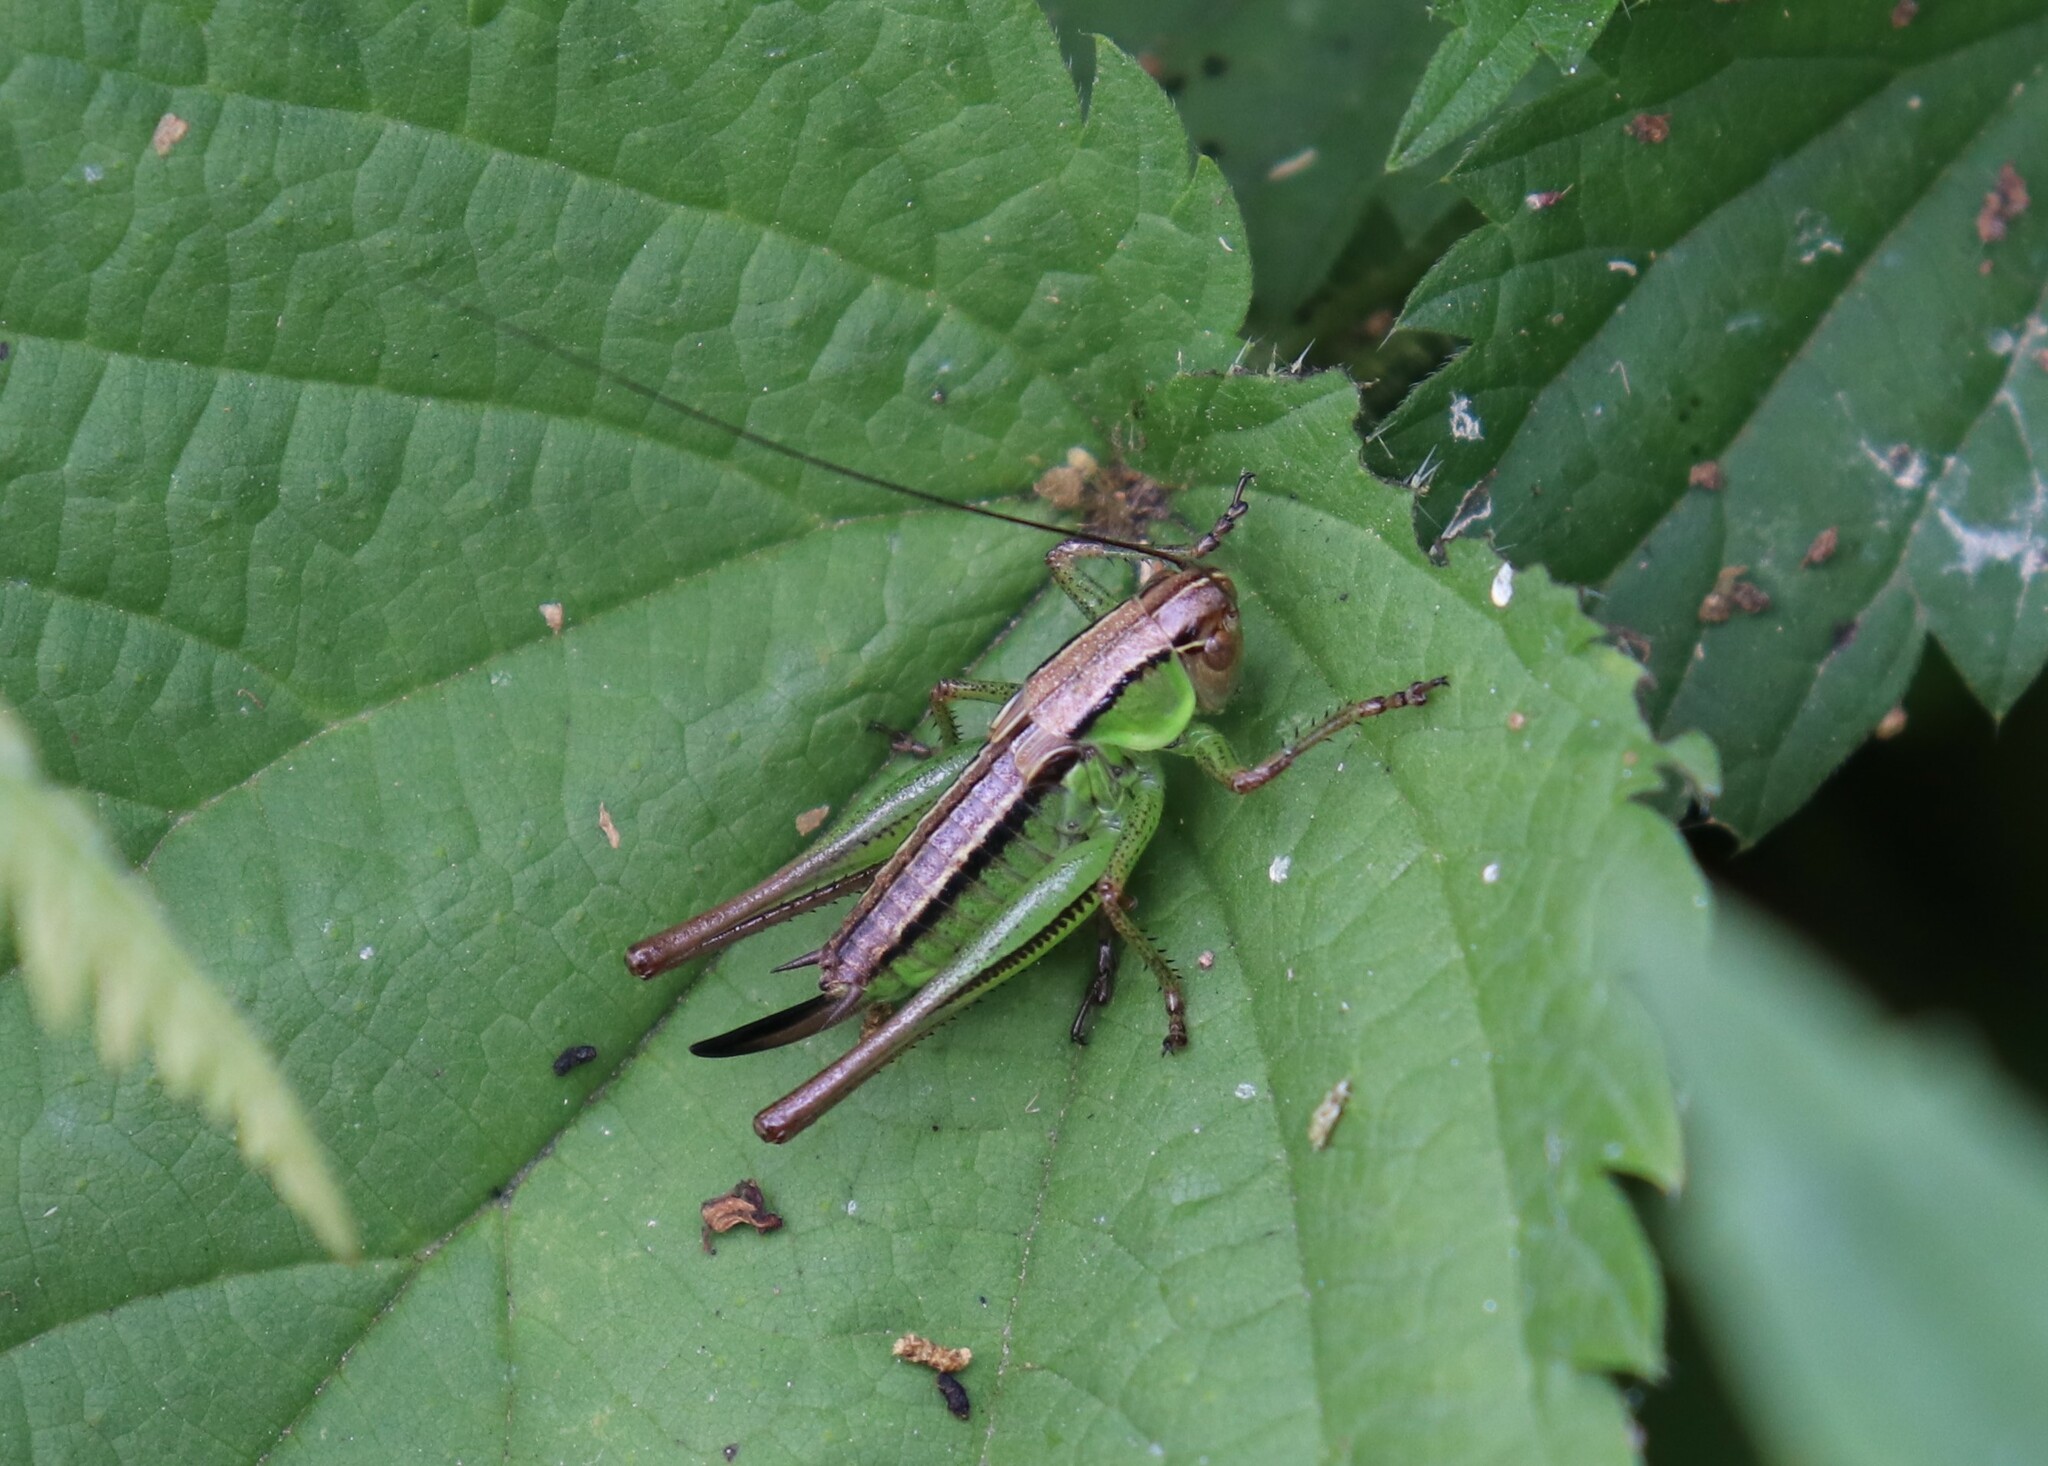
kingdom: Animalia
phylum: Arthropoda
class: Insecta
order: Orthoptera
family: Tettigoniidae
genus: Roeseliana
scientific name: Roeseliana roeselii
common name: Roesel's bush cricket
